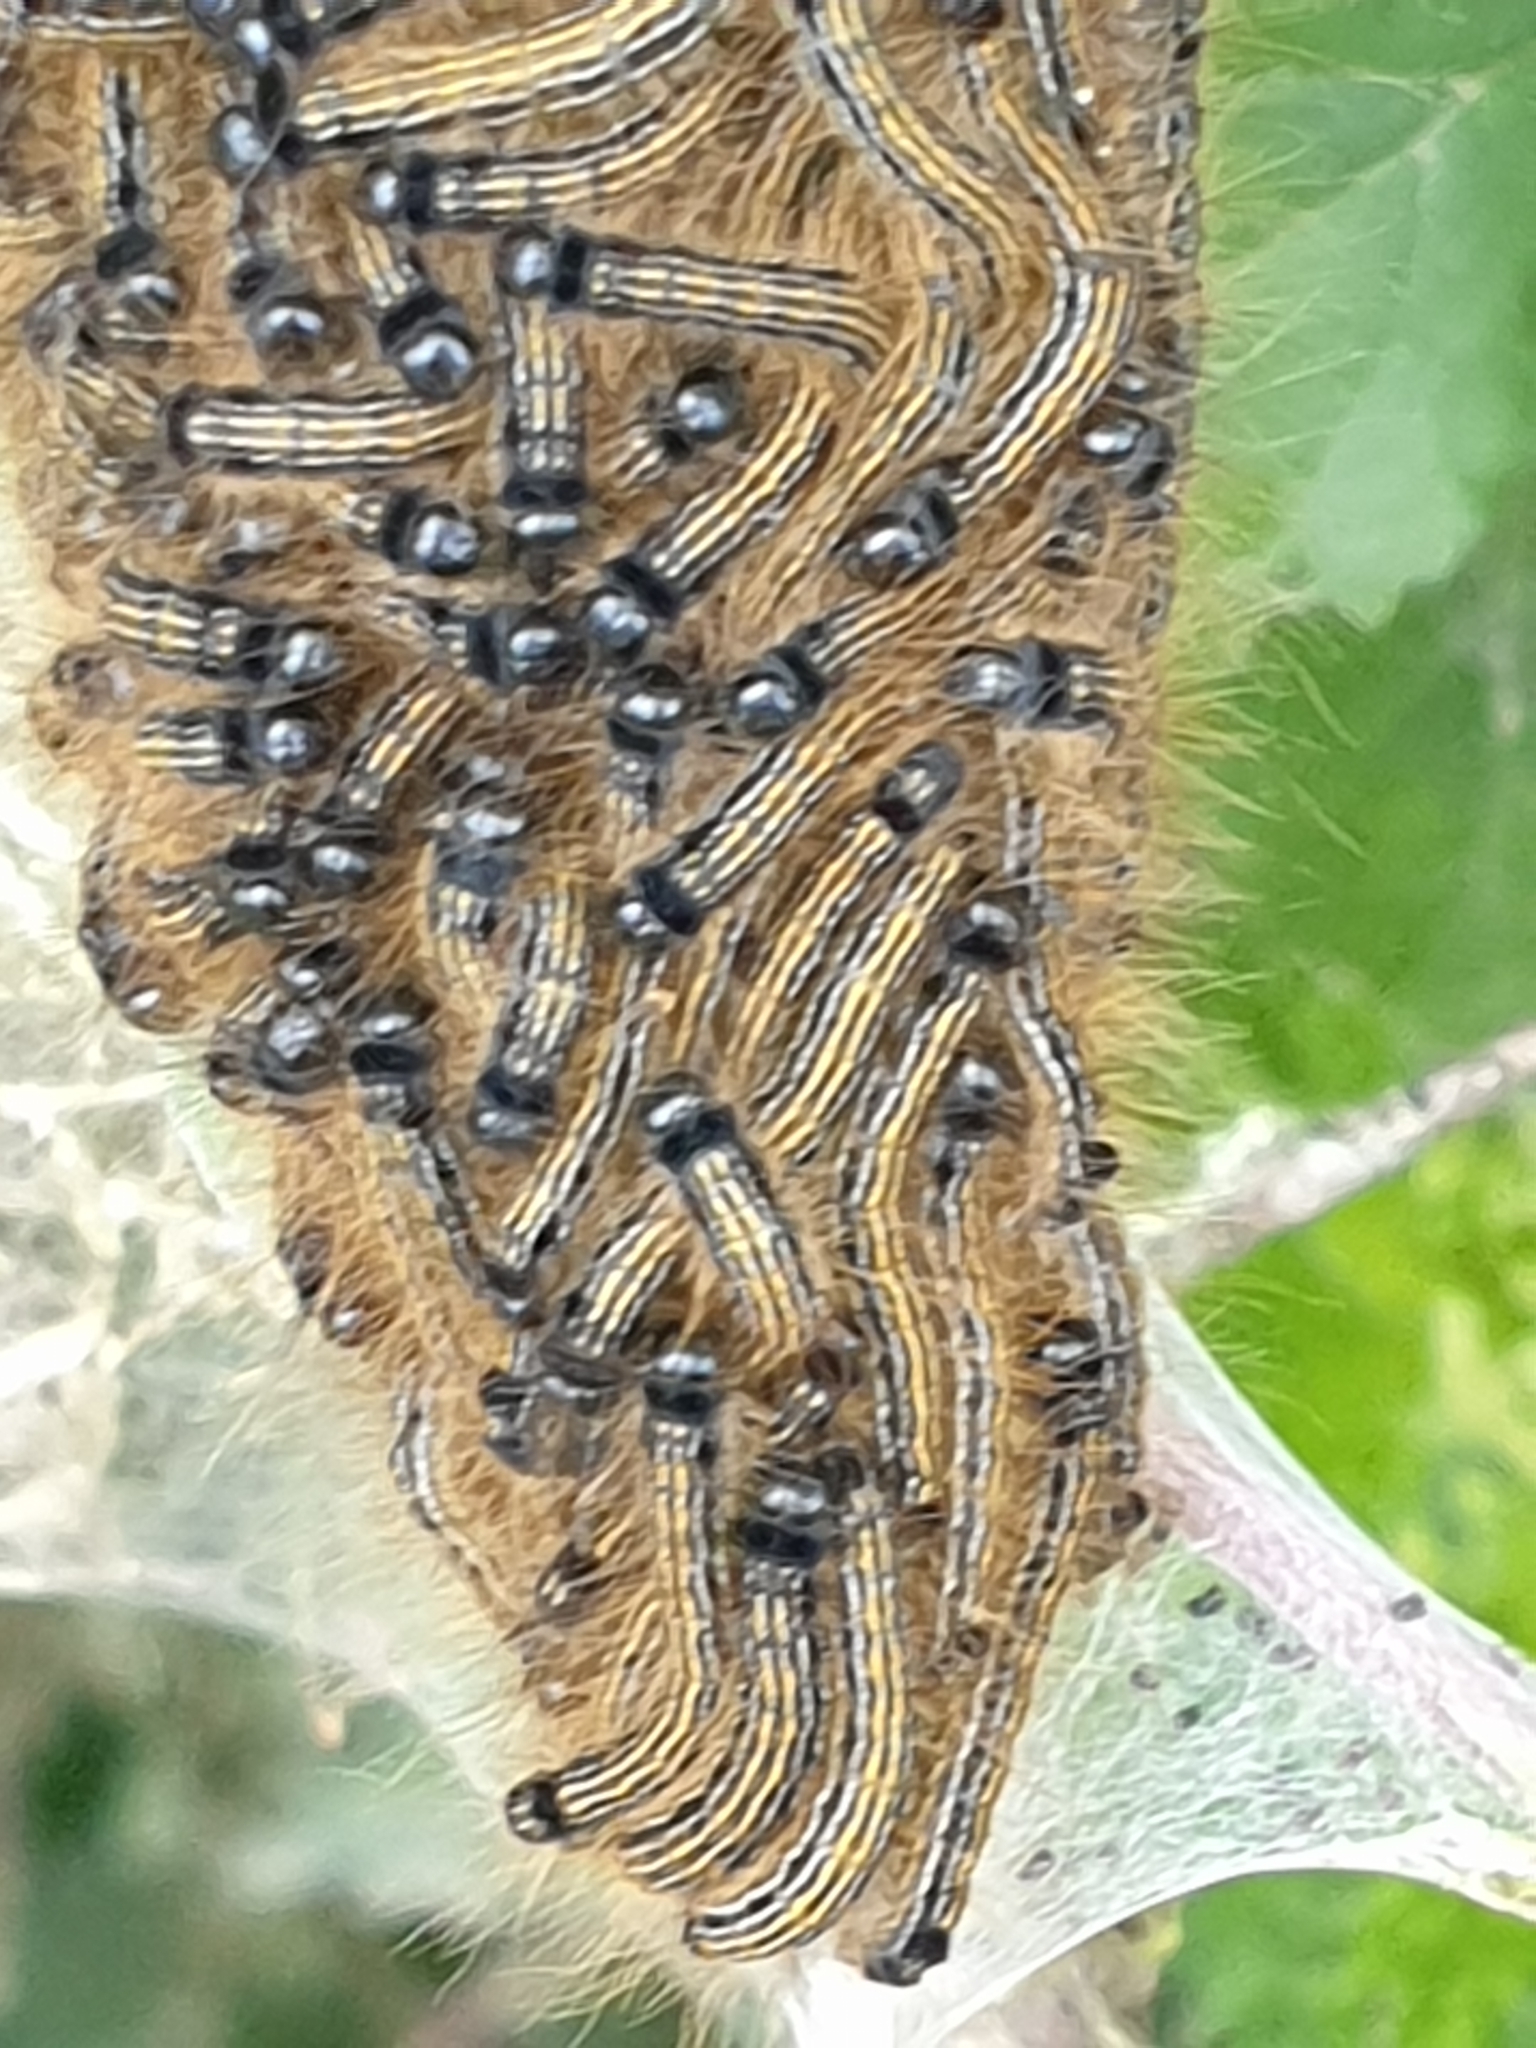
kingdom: Animalia
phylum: Arthropoda
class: Insecta
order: Lepidoptera
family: Lasiocampidae
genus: Malacosoma
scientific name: Malacosoma neustria
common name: The lackey
